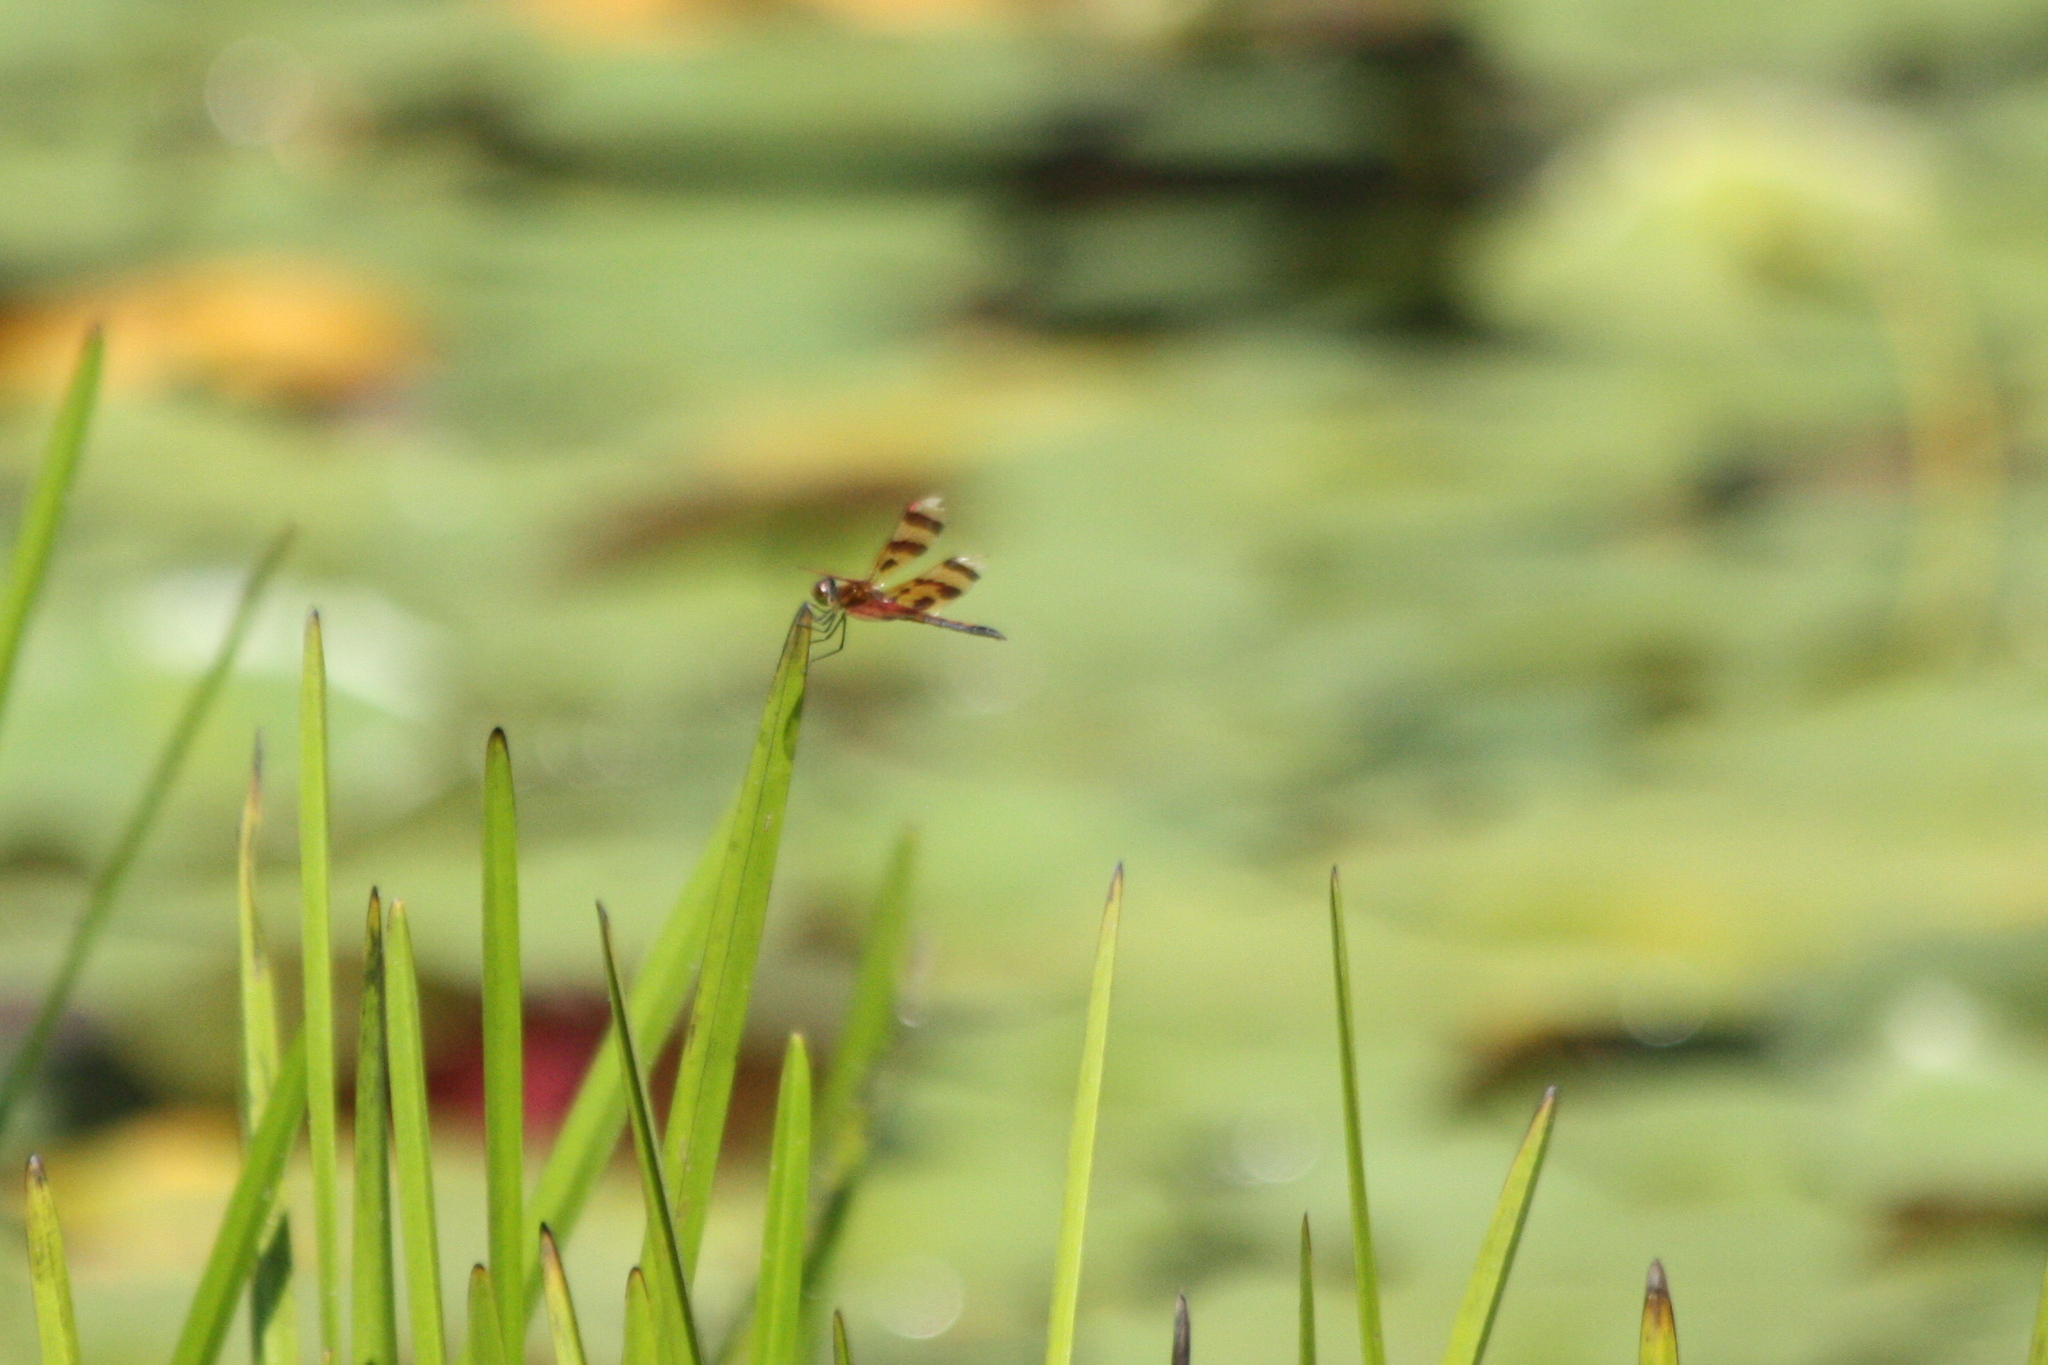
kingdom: Animalia
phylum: Arthropoda
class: Insecta
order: Odonata
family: Libellulidae
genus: Celithemis
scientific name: Celithemis eponina
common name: Halloween pennant
